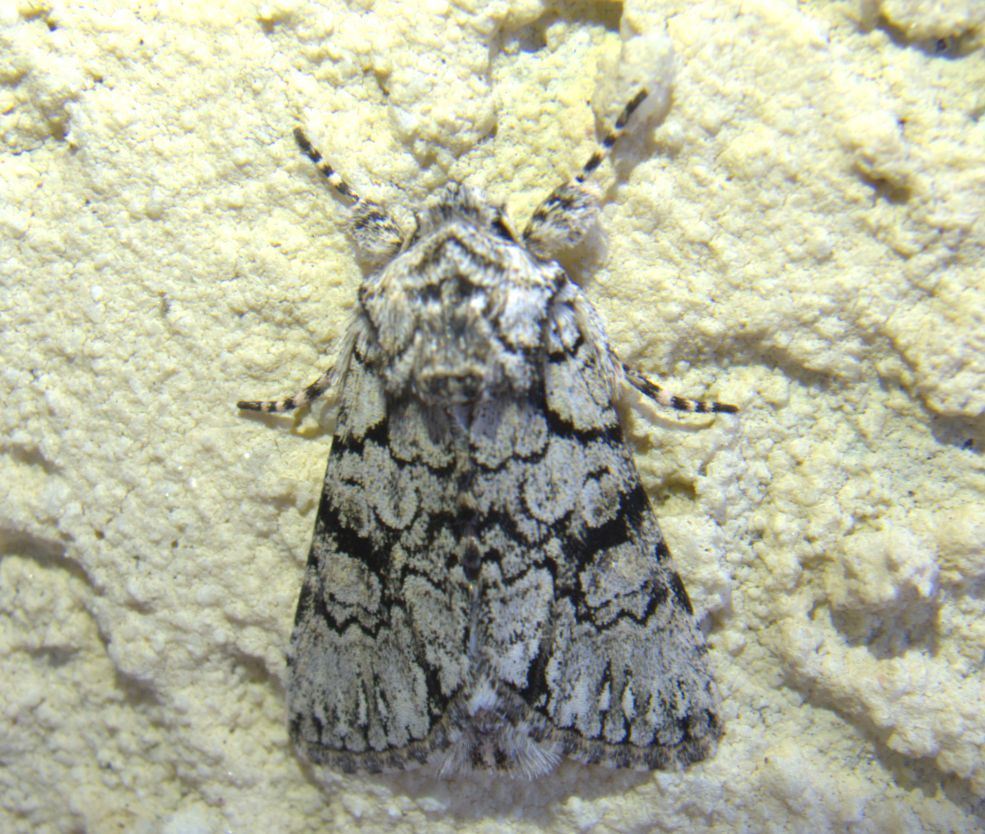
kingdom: Animalia
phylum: Arthropoda
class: Insecta
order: Lepidoptera
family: Noctuidae
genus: Valerietta
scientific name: Valerietta hreblayi
